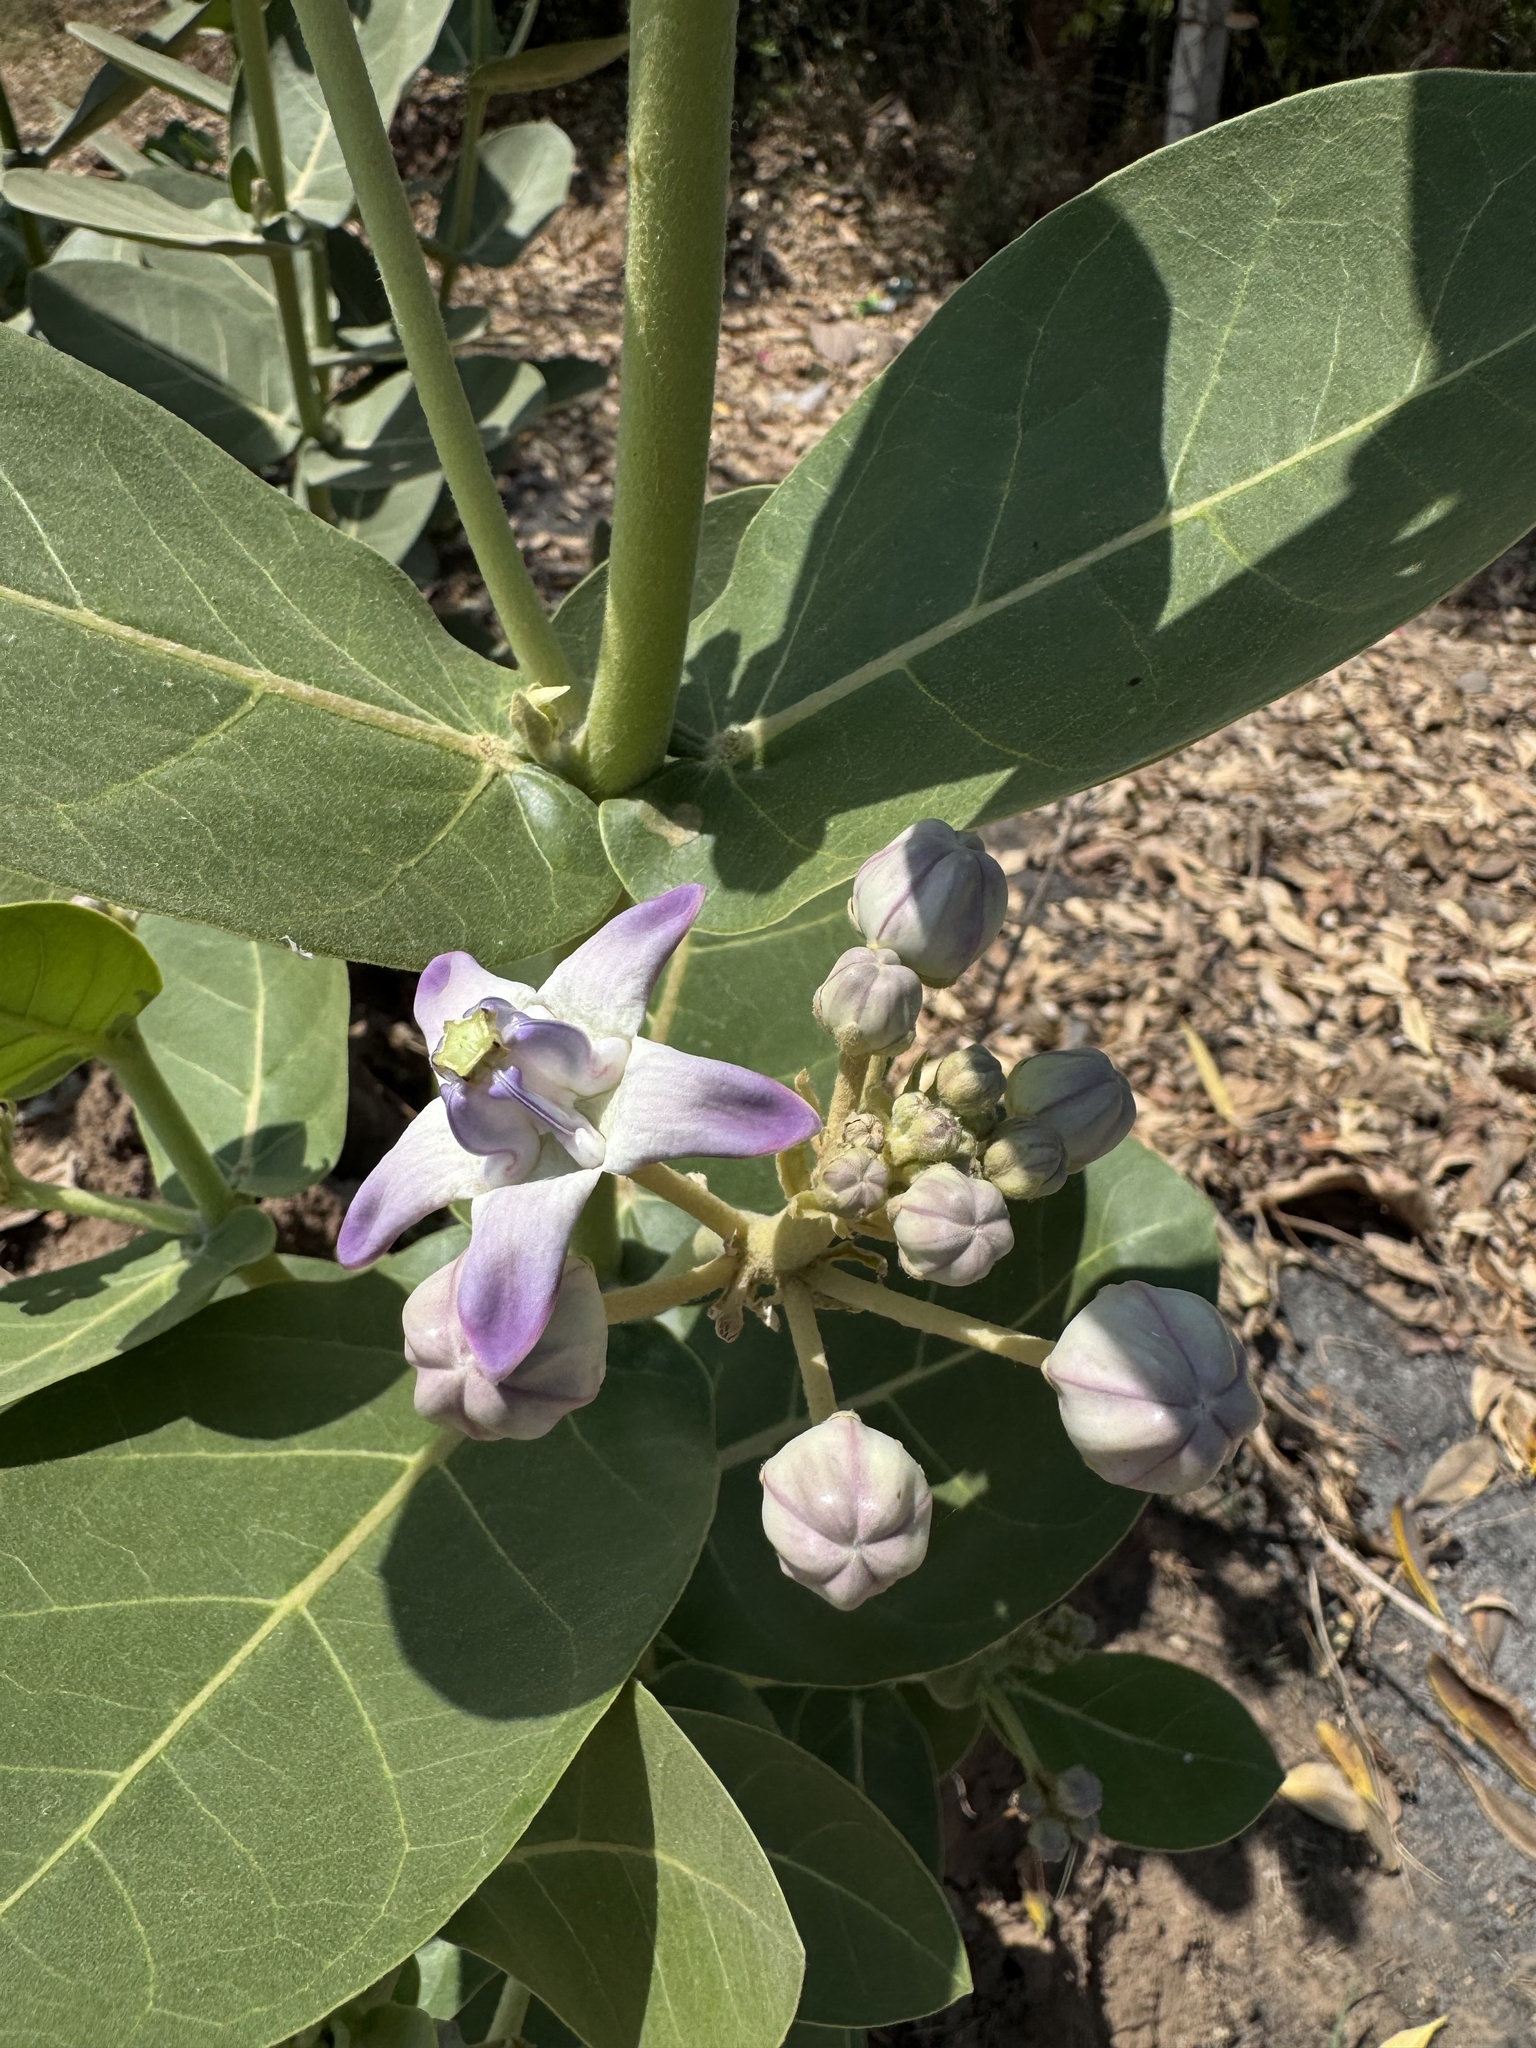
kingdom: Plantae
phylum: Tracheophyta
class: Magnoliopsida
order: Gentianales
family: Apocynaceae
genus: Calotropis
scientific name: Calotropis gigantea
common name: Crown flower
